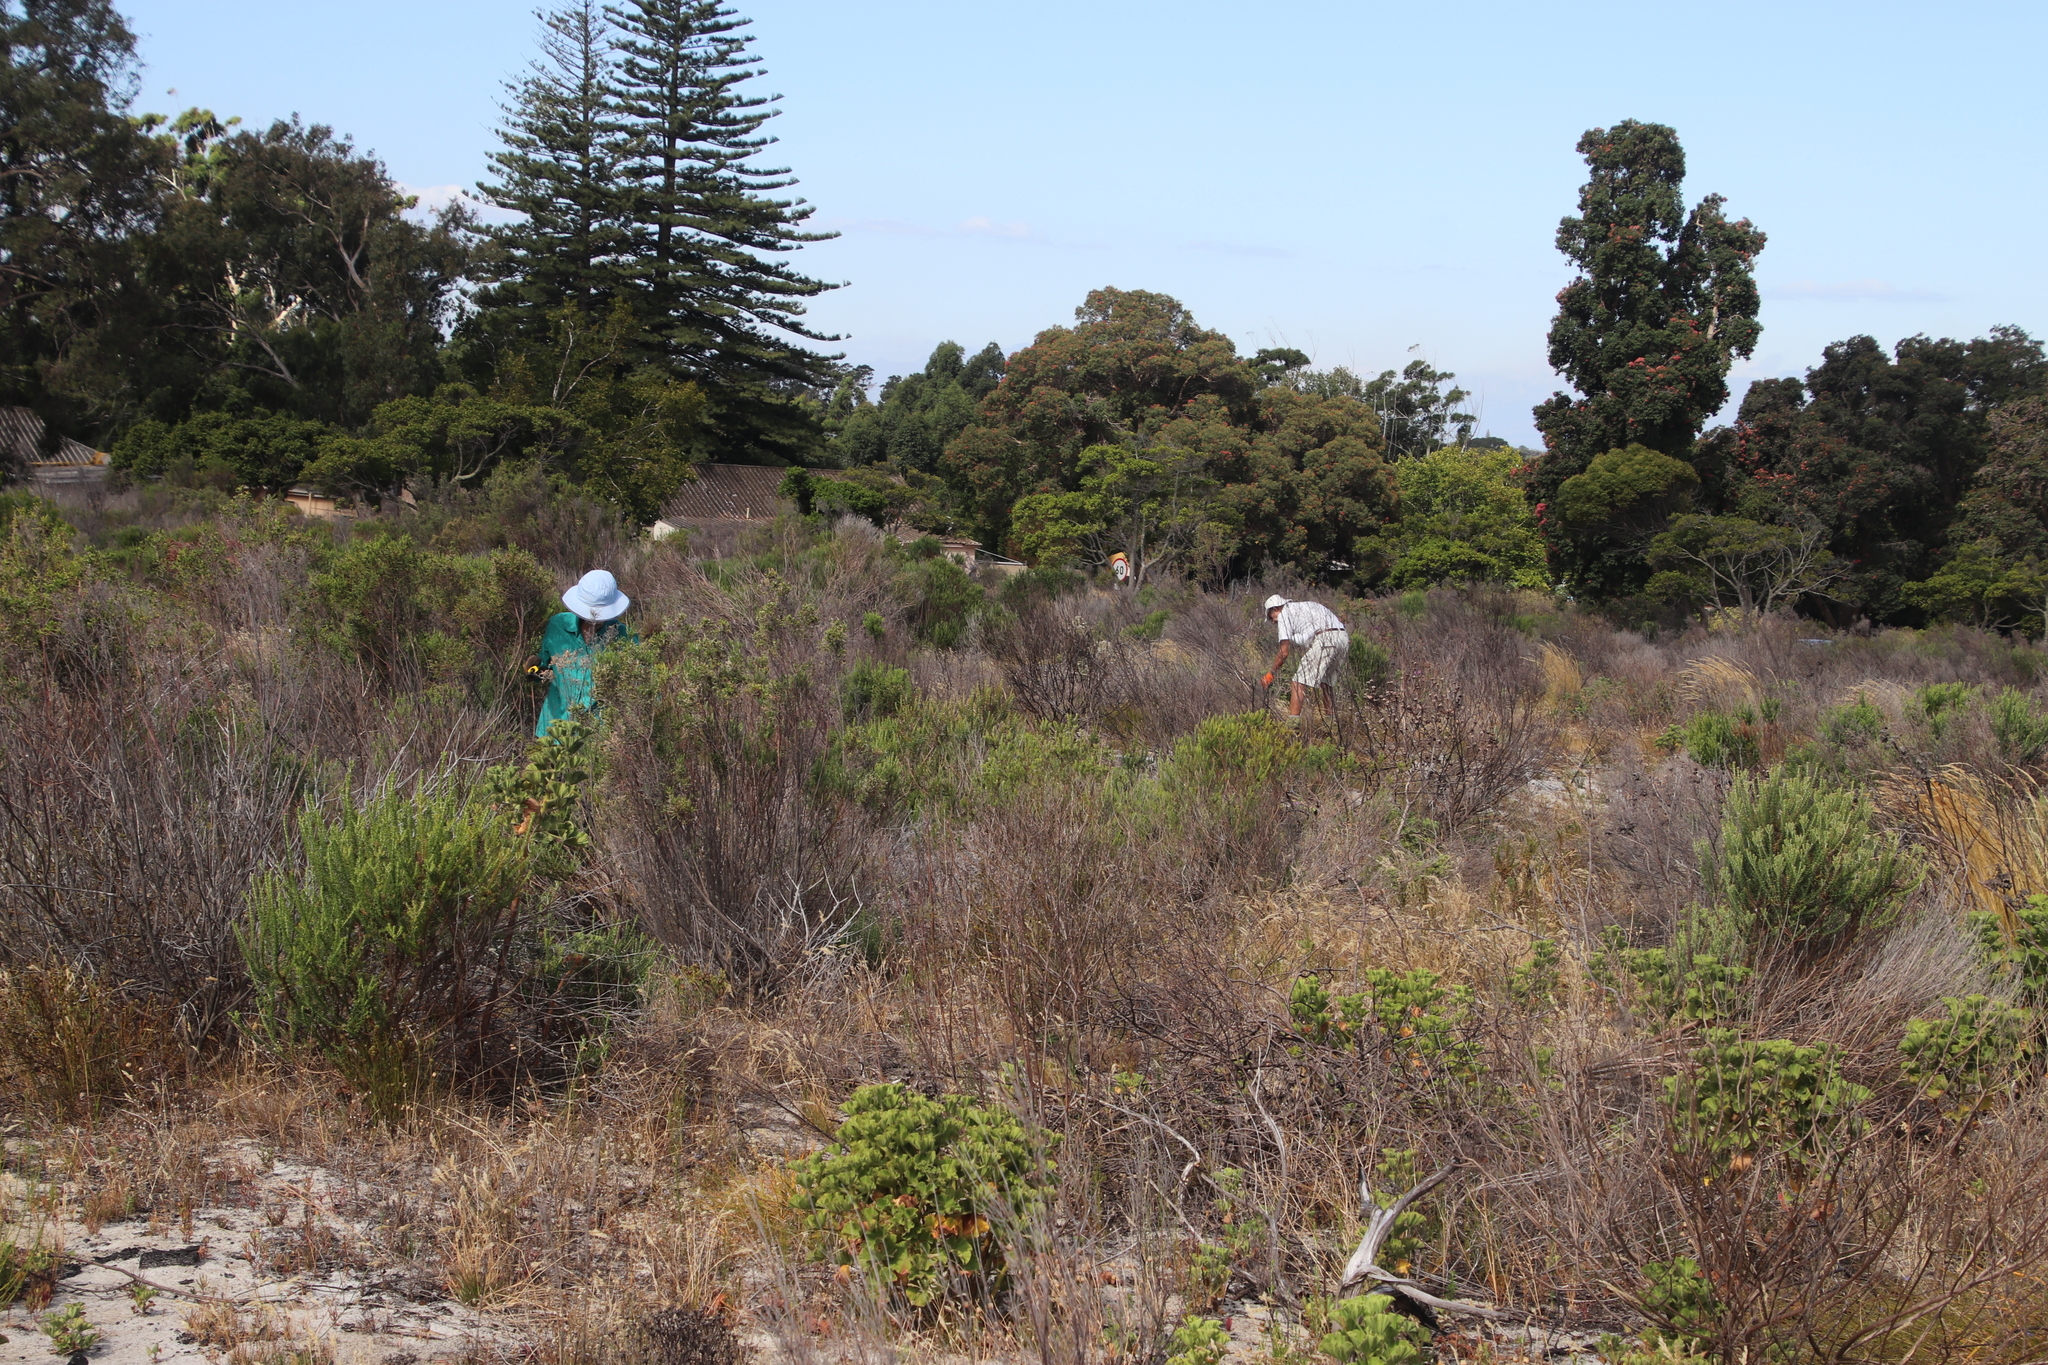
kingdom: Plantae
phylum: Tracheophyta
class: Magnoliopsida
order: Geraniales
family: Geraniaceae
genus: Pelargonium
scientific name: Pelargonium cucullatum
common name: Tree pelargonium
